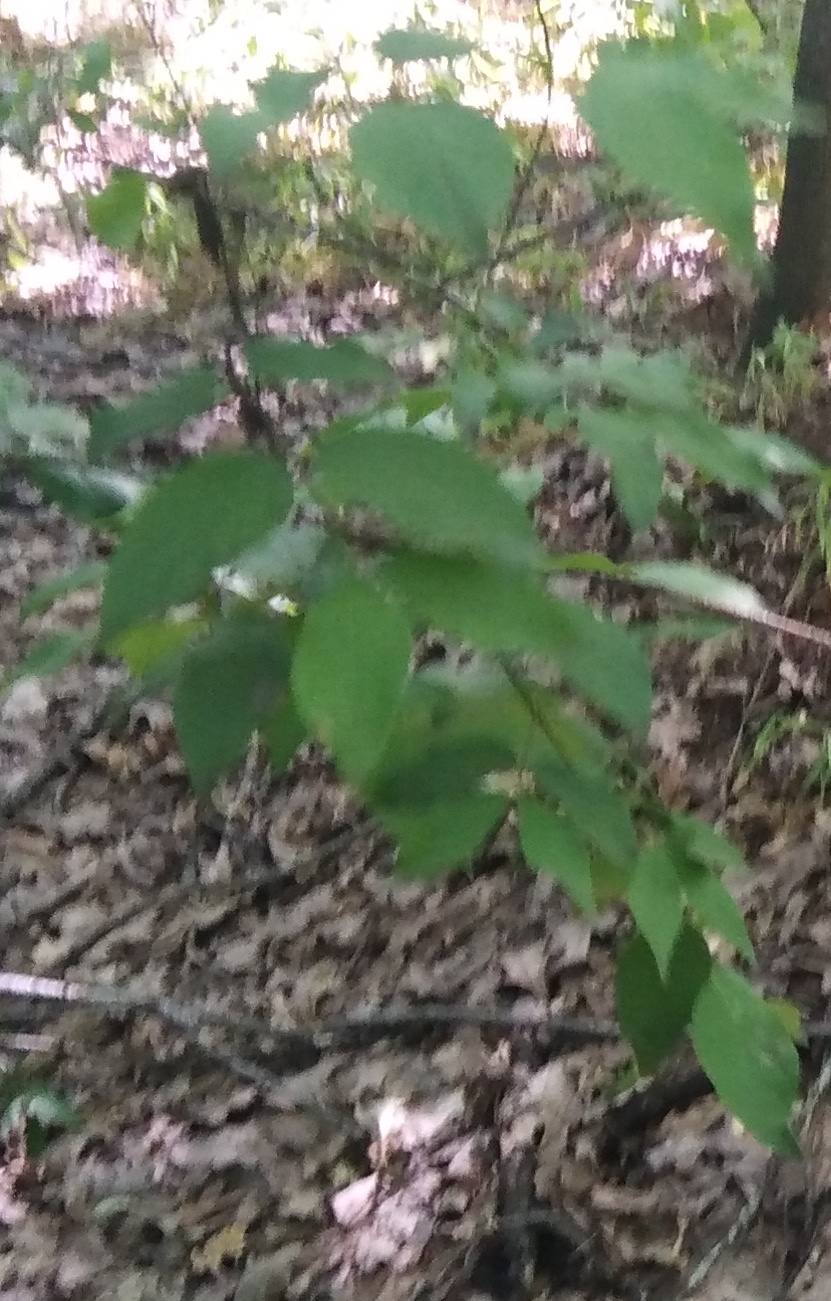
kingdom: Plantae
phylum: Tracheophyta
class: Magnoliopsida
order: Rosales
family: Rosaceae
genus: Prunus
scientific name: Prunus padus
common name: Bird cherry
